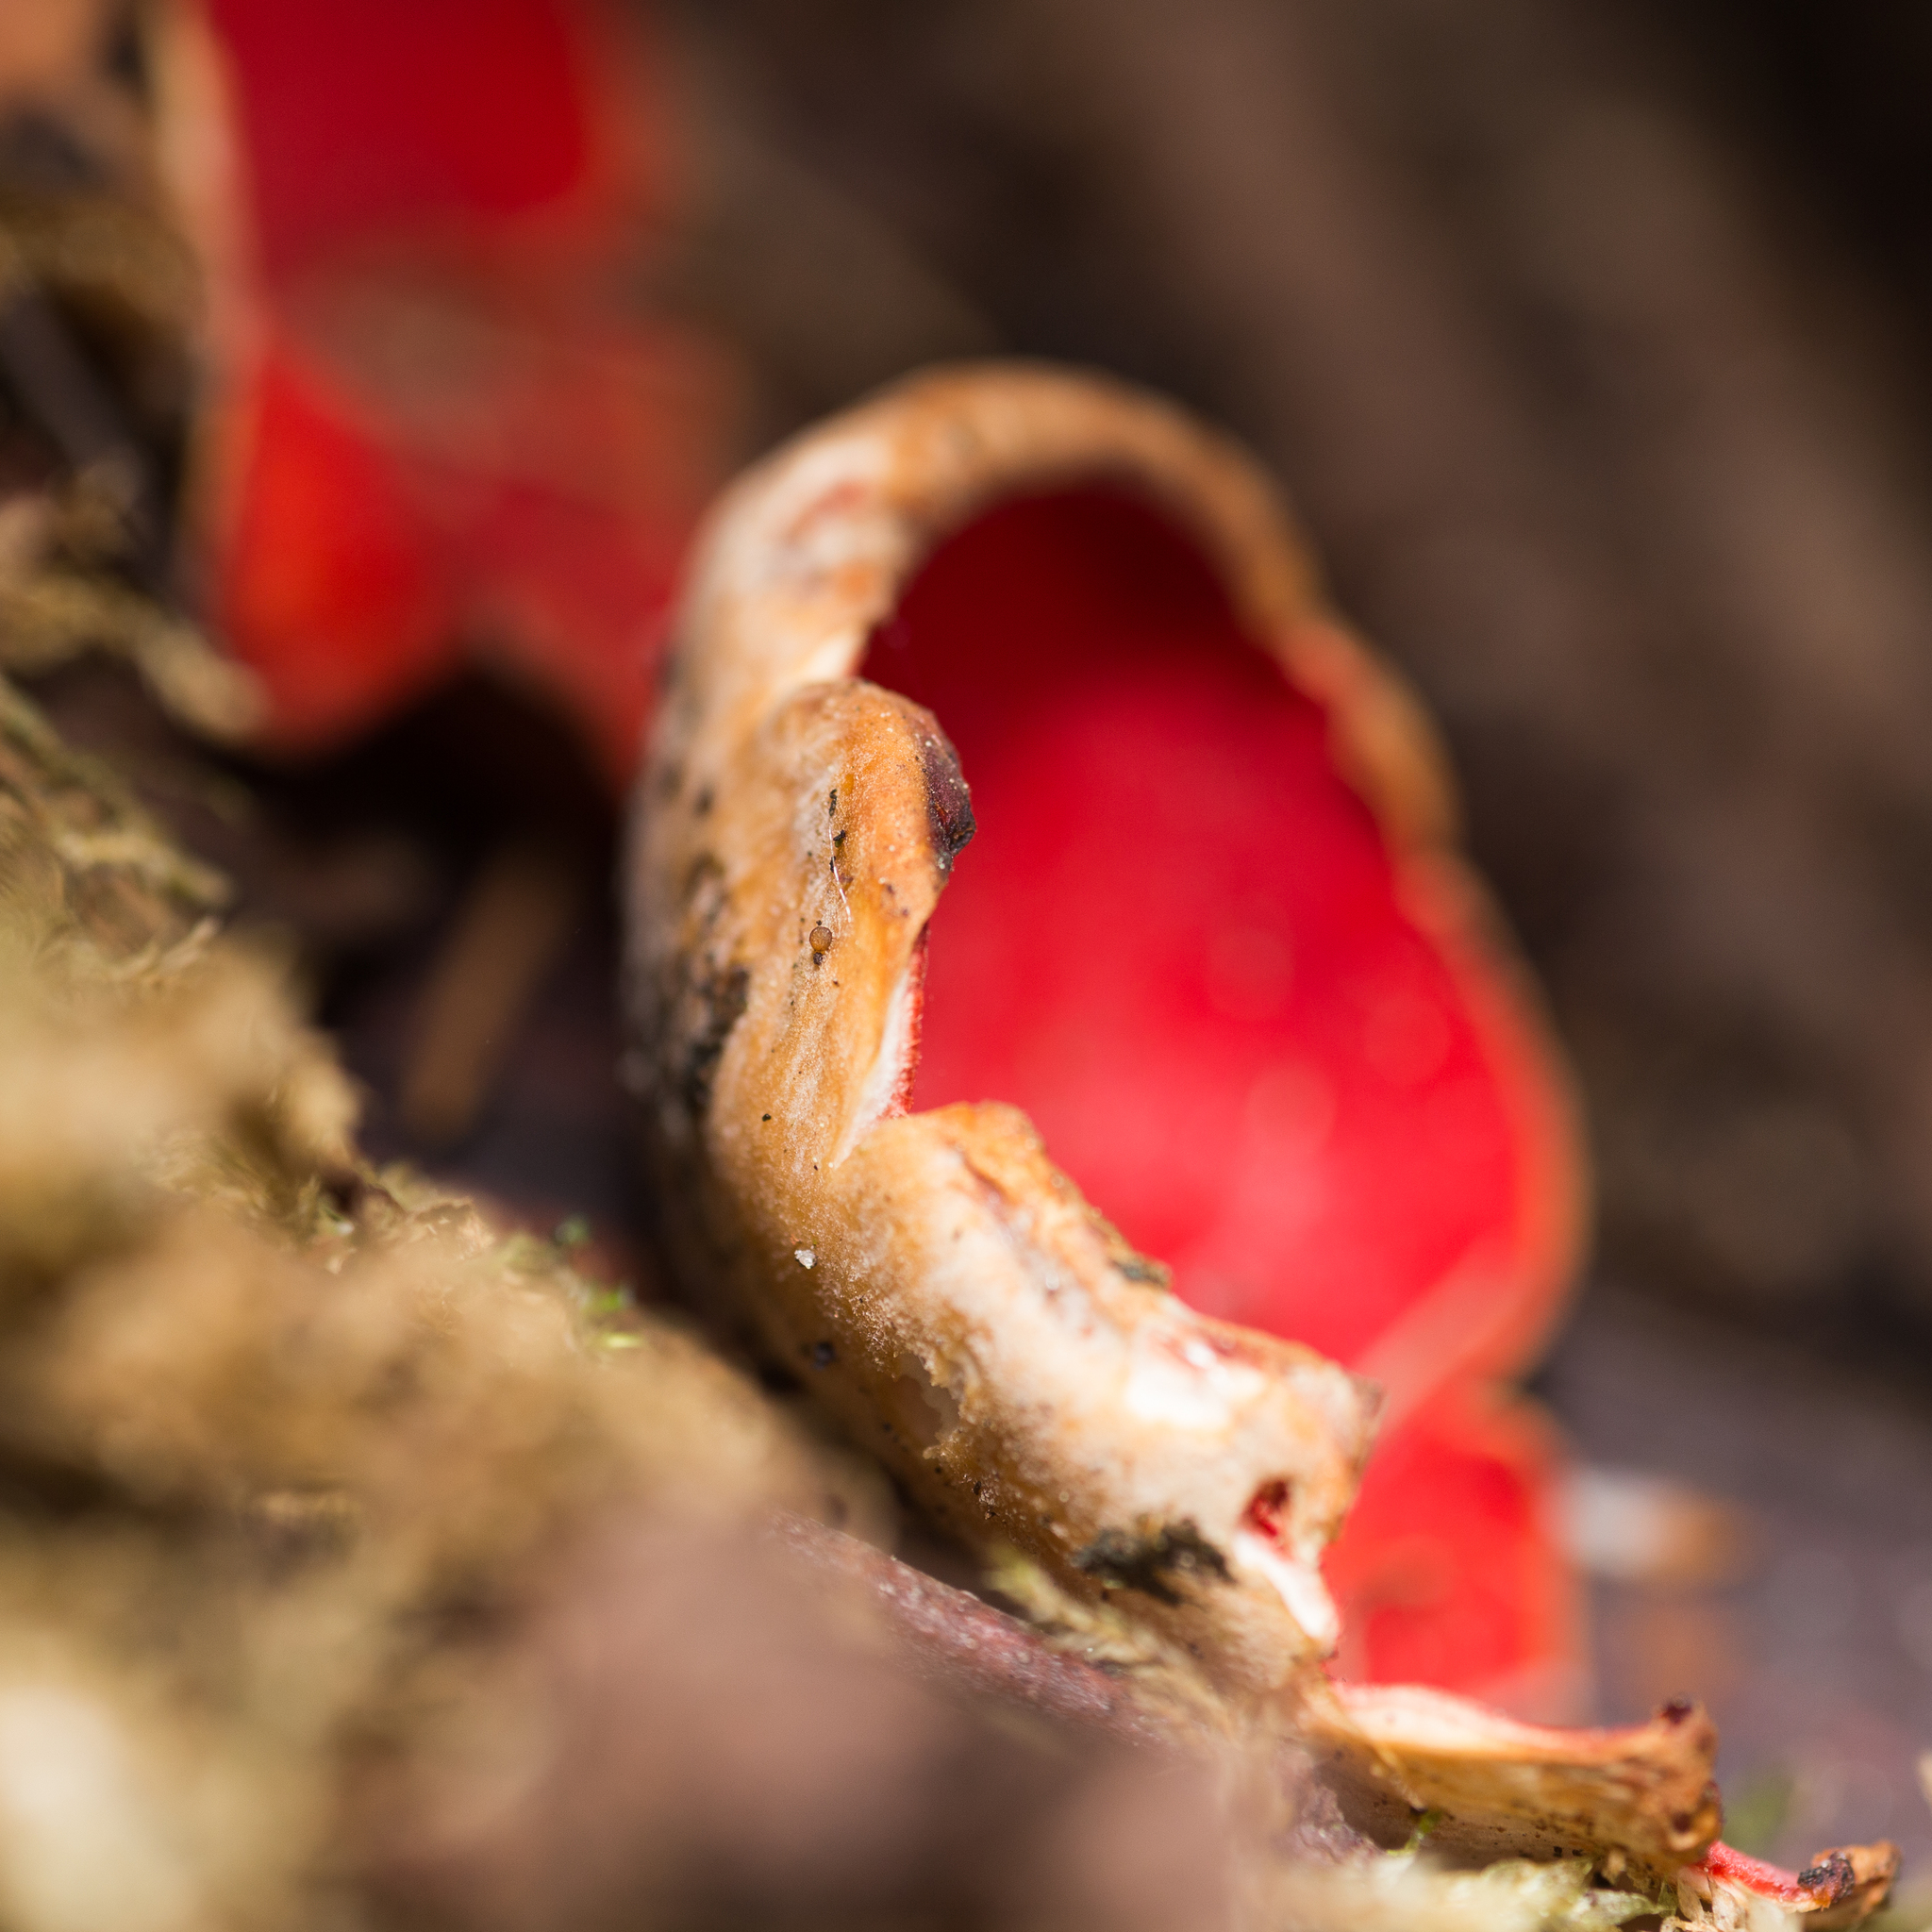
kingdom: Fungi
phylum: Ascomycota
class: Pezizomycetes
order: Pezizales
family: Sarcoscyphaceae
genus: Sarcoscypha
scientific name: Sarcoscypha austriaca
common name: Scarlet elfcup
